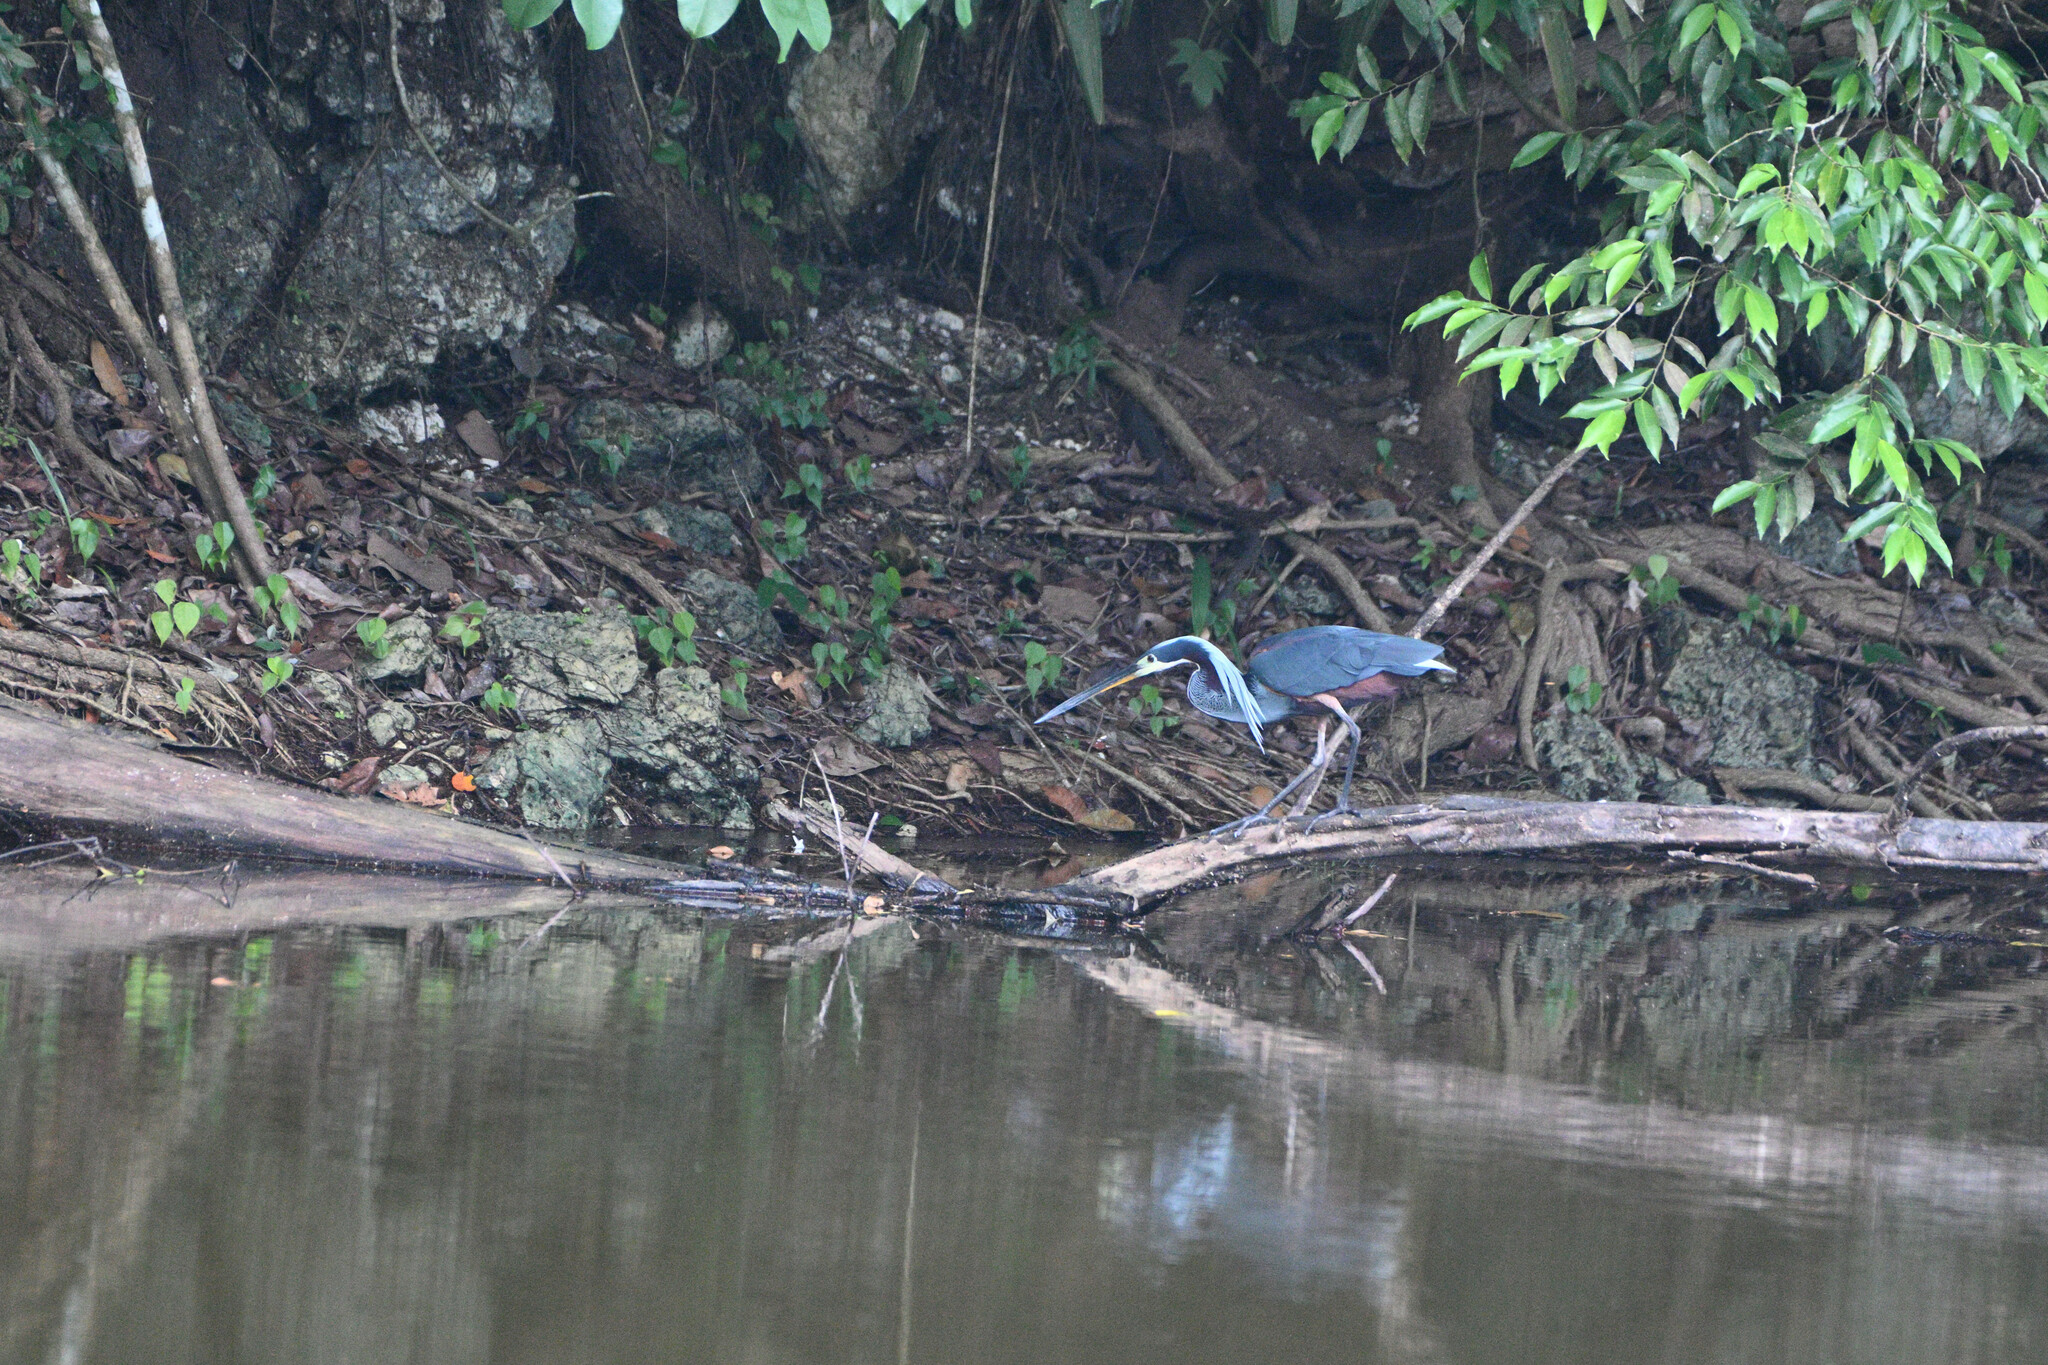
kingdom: Animalia
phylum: Chordata
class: Aves
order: Pelecaniformes
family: Ardeidae
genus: Agamia
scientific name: Agamia agami
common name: Agami heron
